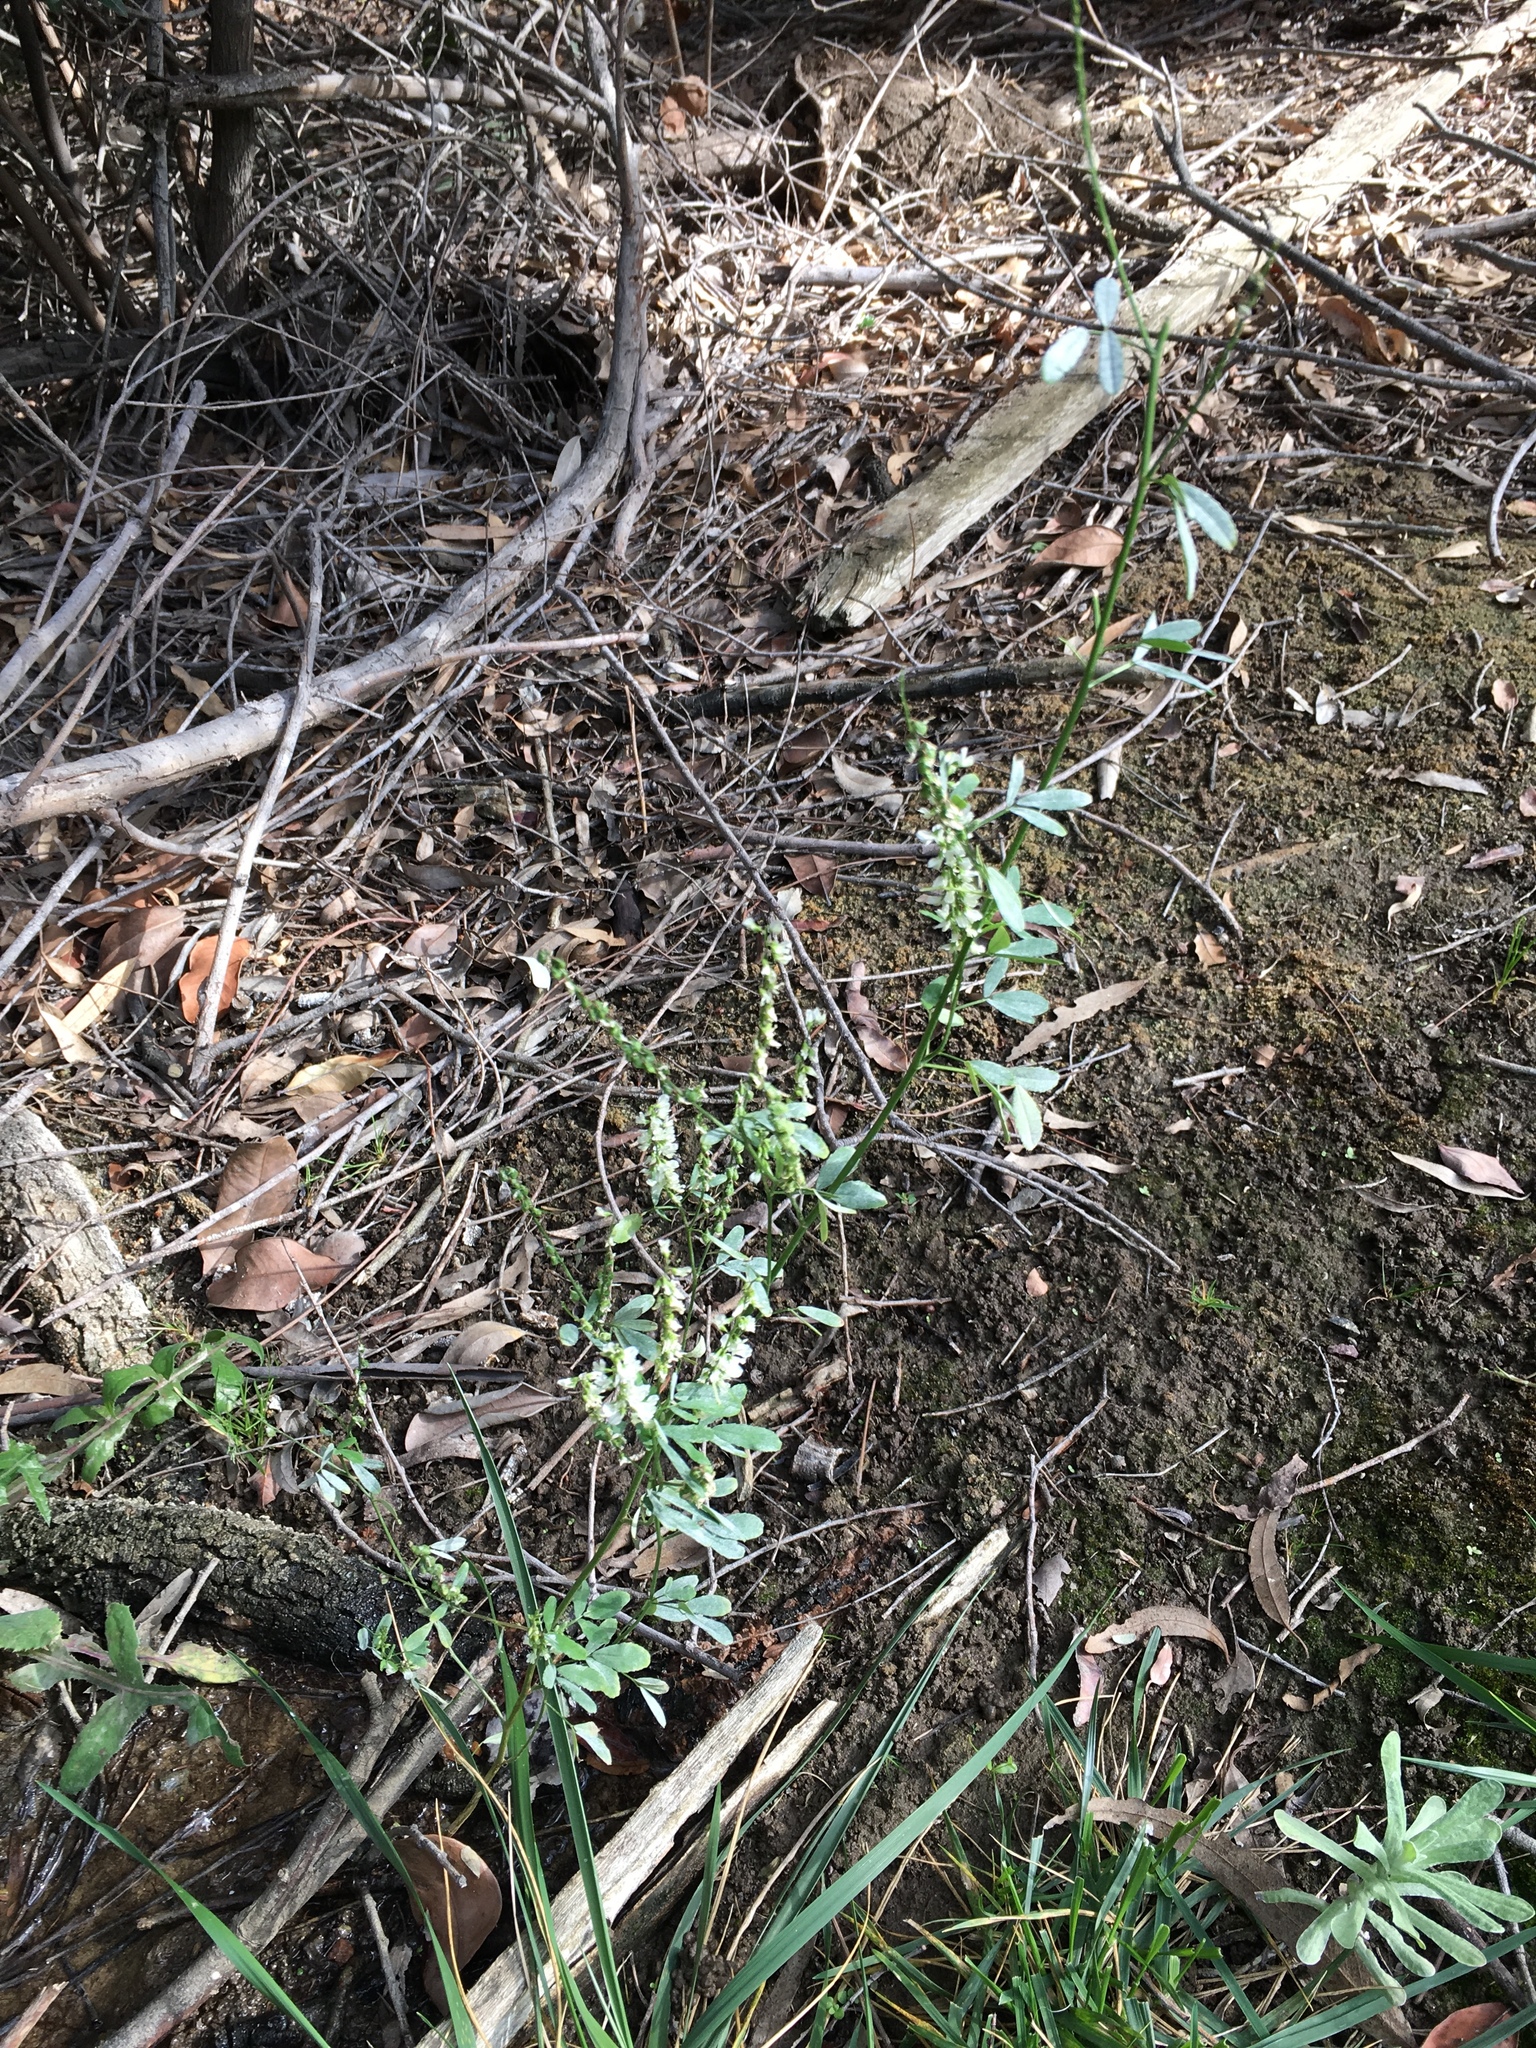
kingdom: Plantae
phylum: Tracheophyta
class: Magnoliopsida
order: Fabales
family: Fabaceae
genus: Melilotus
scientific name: Melilotus albus
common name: White melilot
